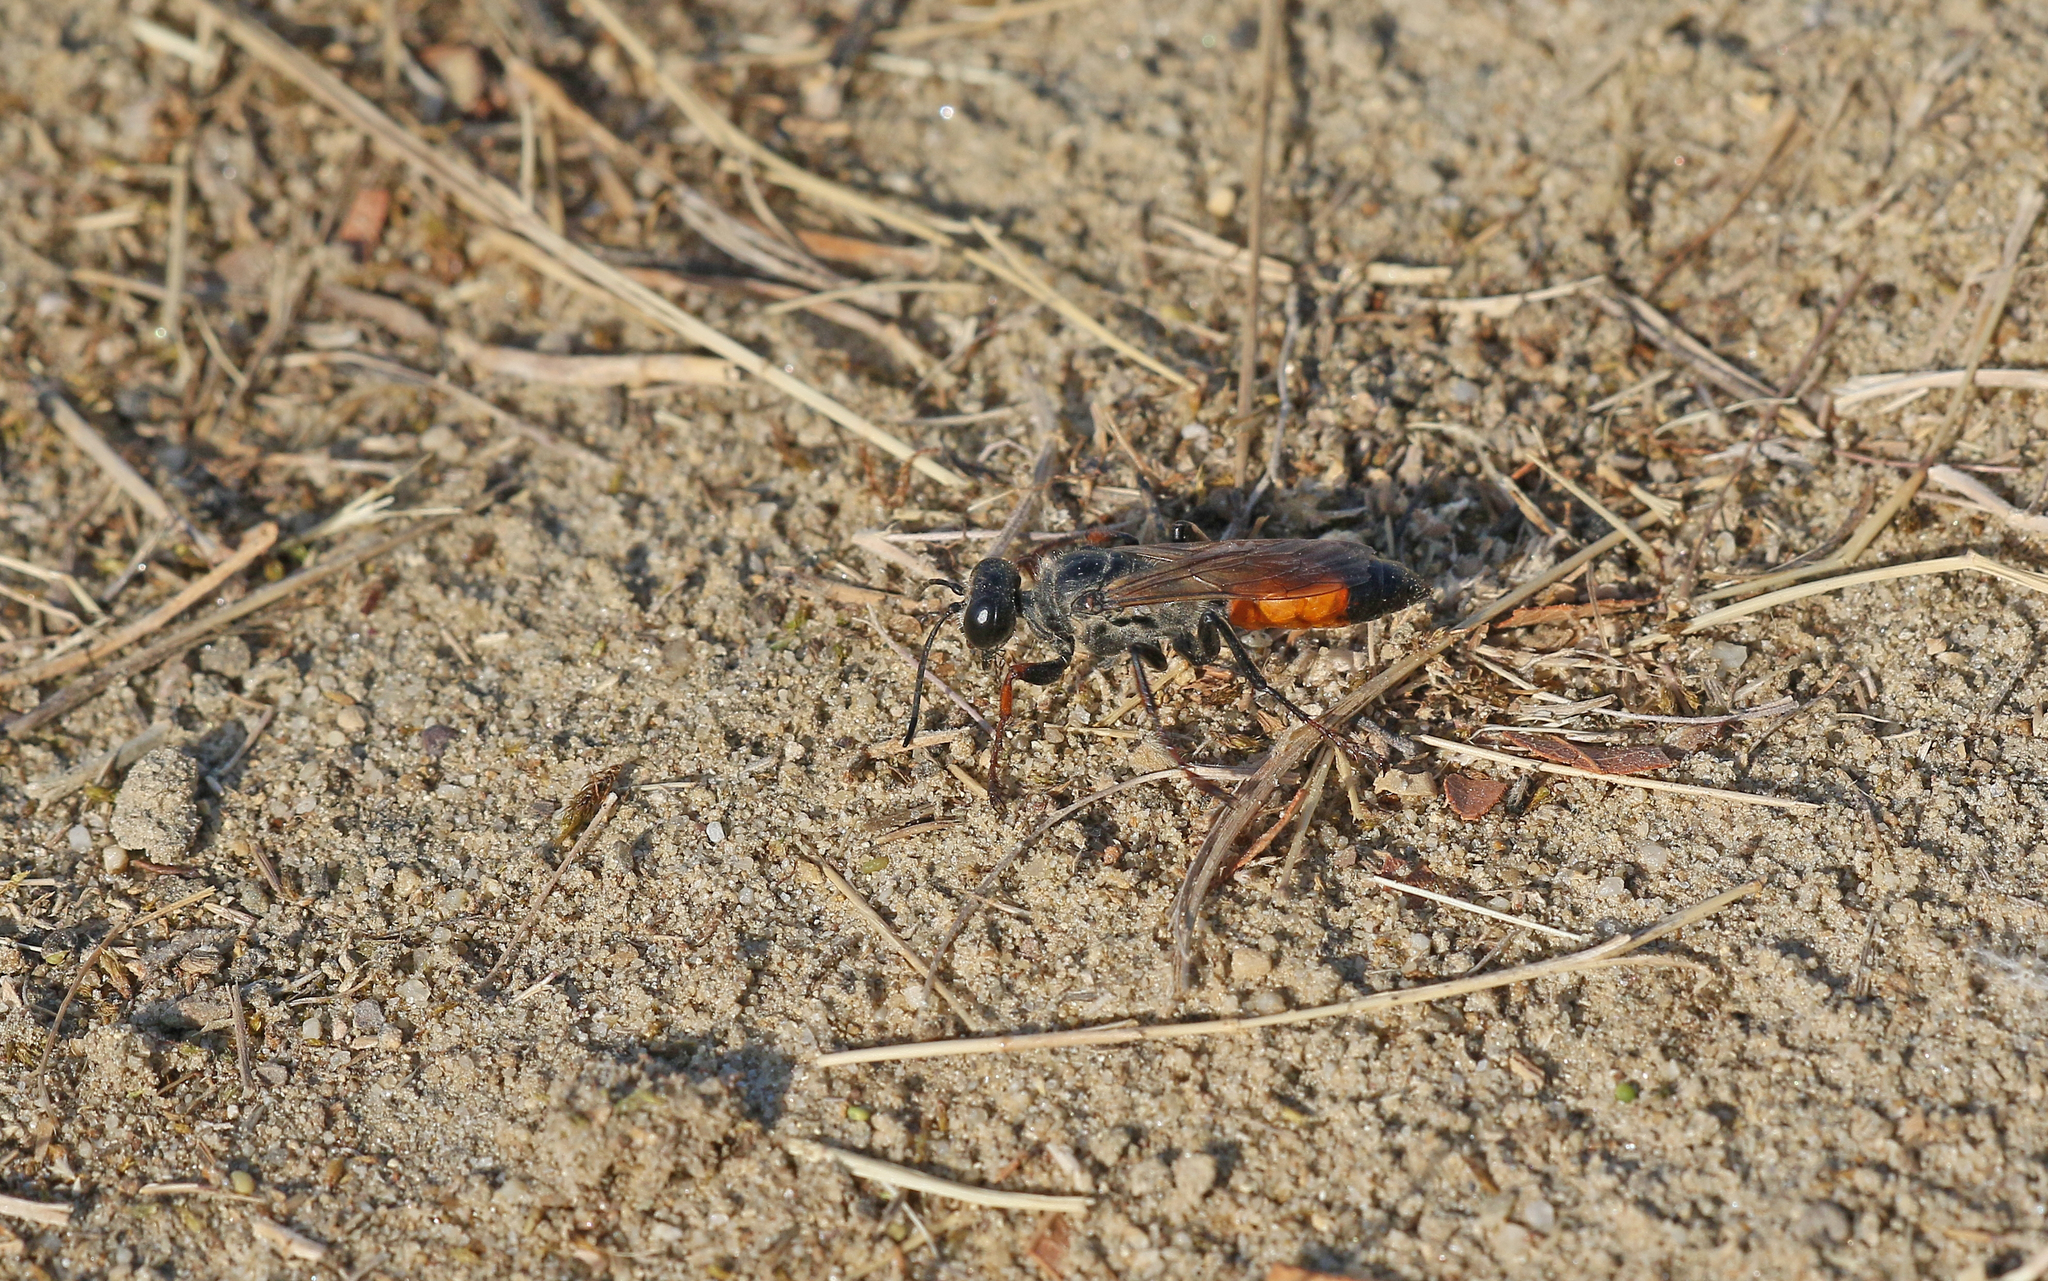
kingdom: Animalia
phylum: Arthropoda
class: Insecta
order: Hymenoptera
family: Sphecidae
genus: Sphex
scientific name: Sphex funerarius
